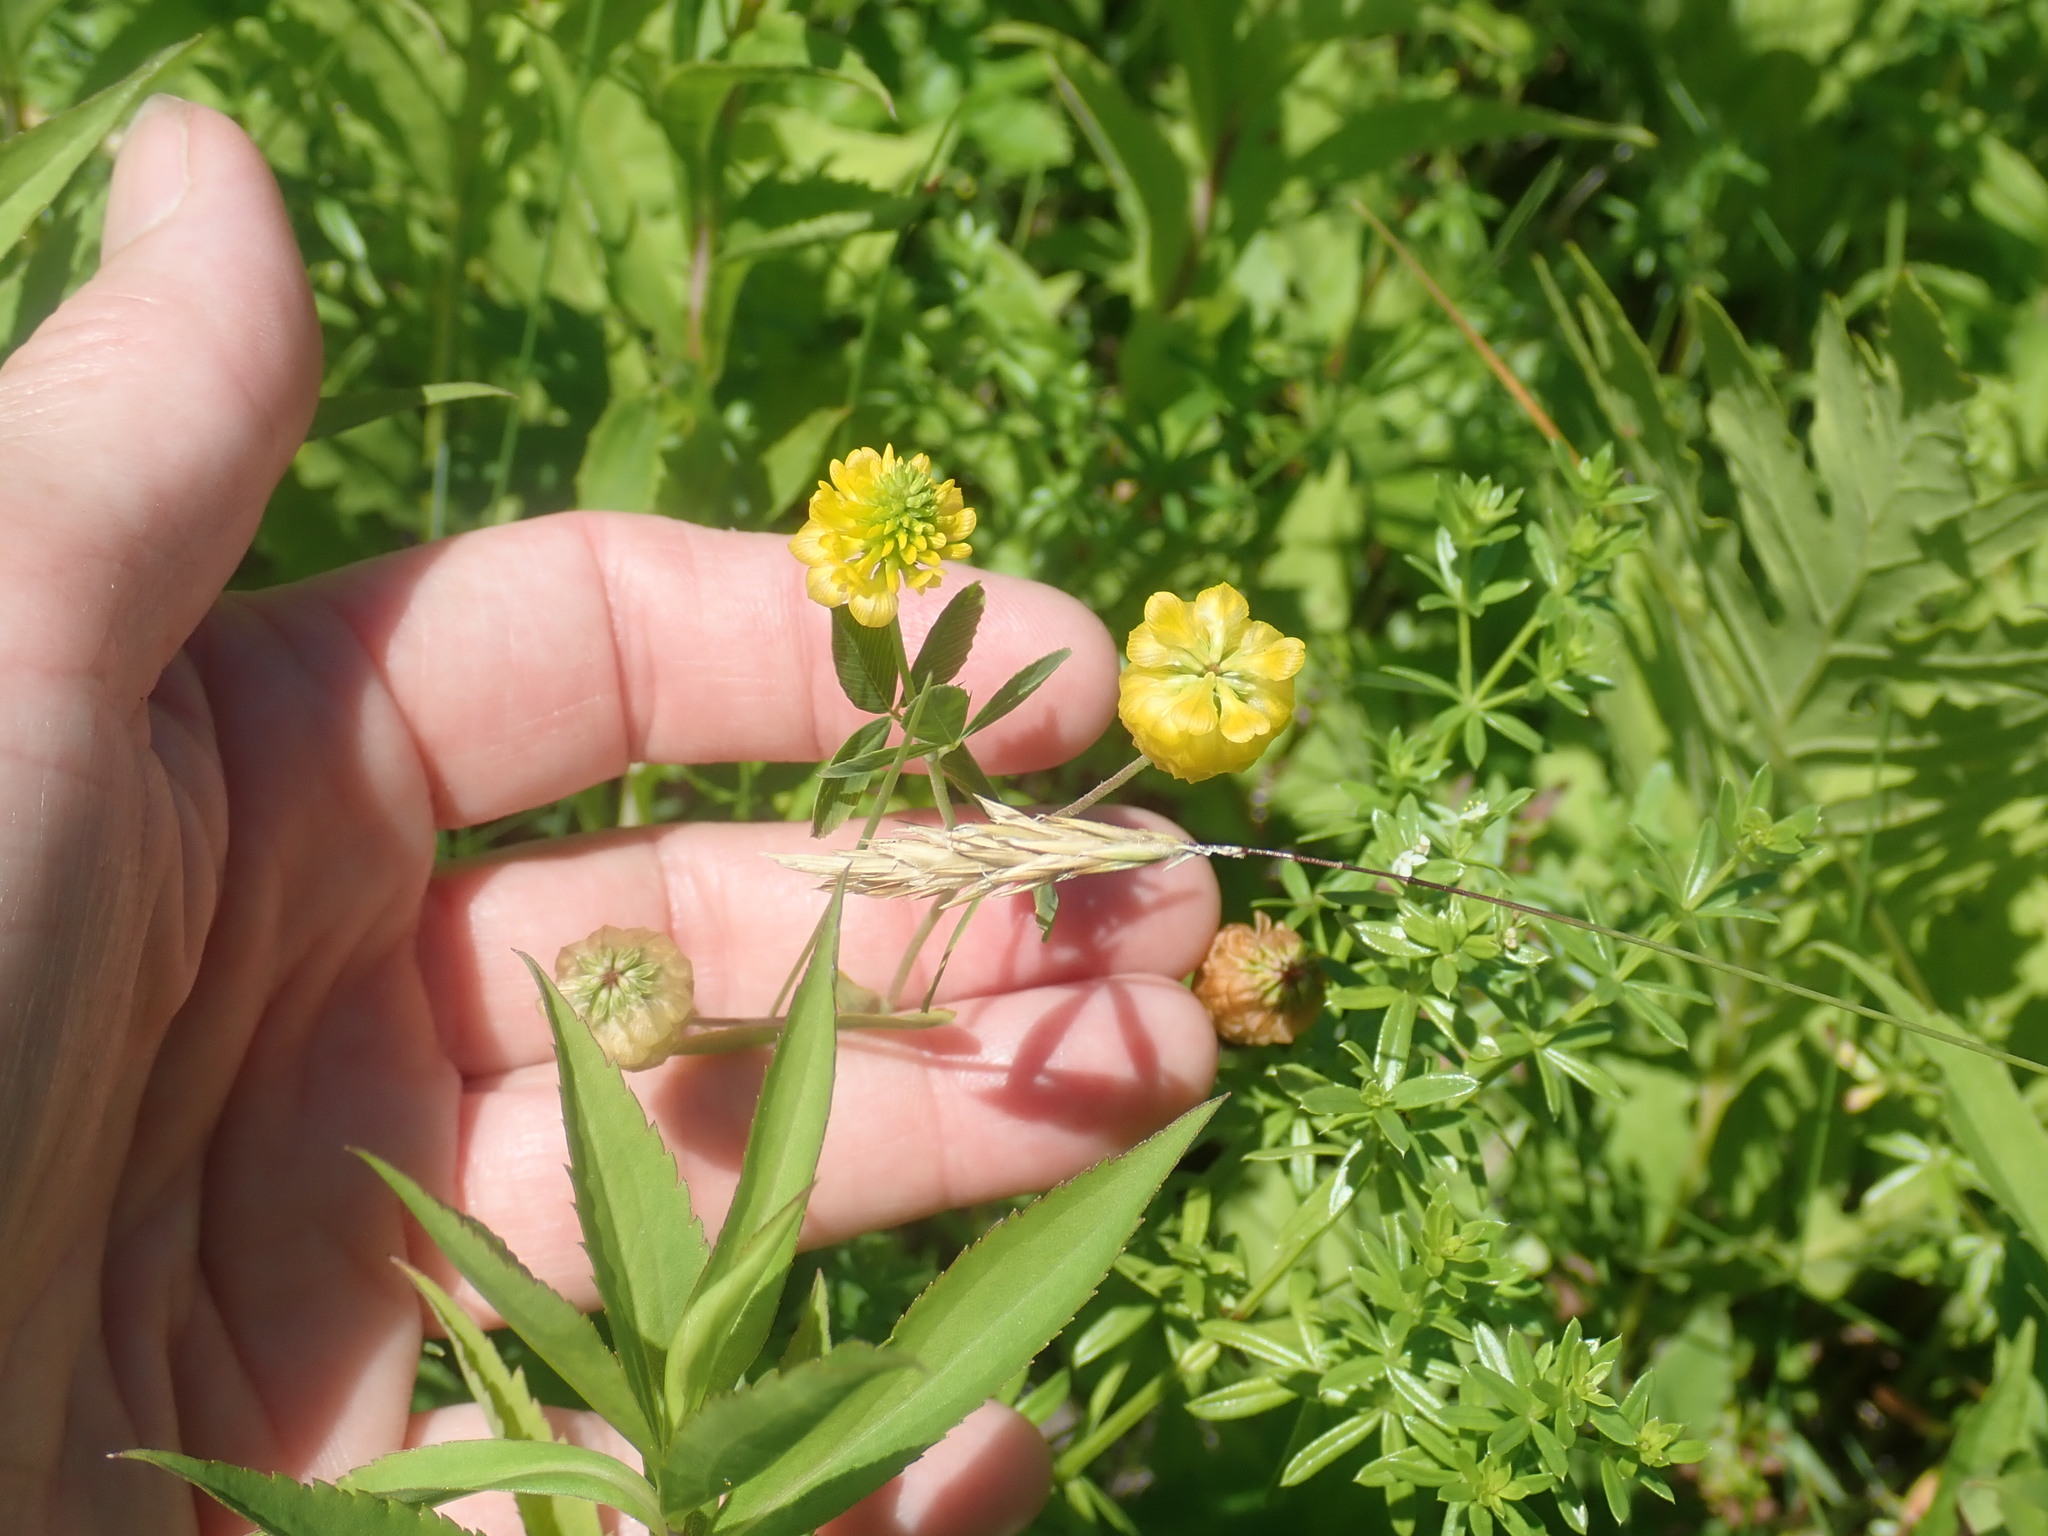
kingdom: Plantae
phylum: Tracheophyta
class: Magnoliopsida
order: Fabales
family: Fabaceae
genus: Trifolium
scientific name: Trifolium aureum
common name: Golden clover
